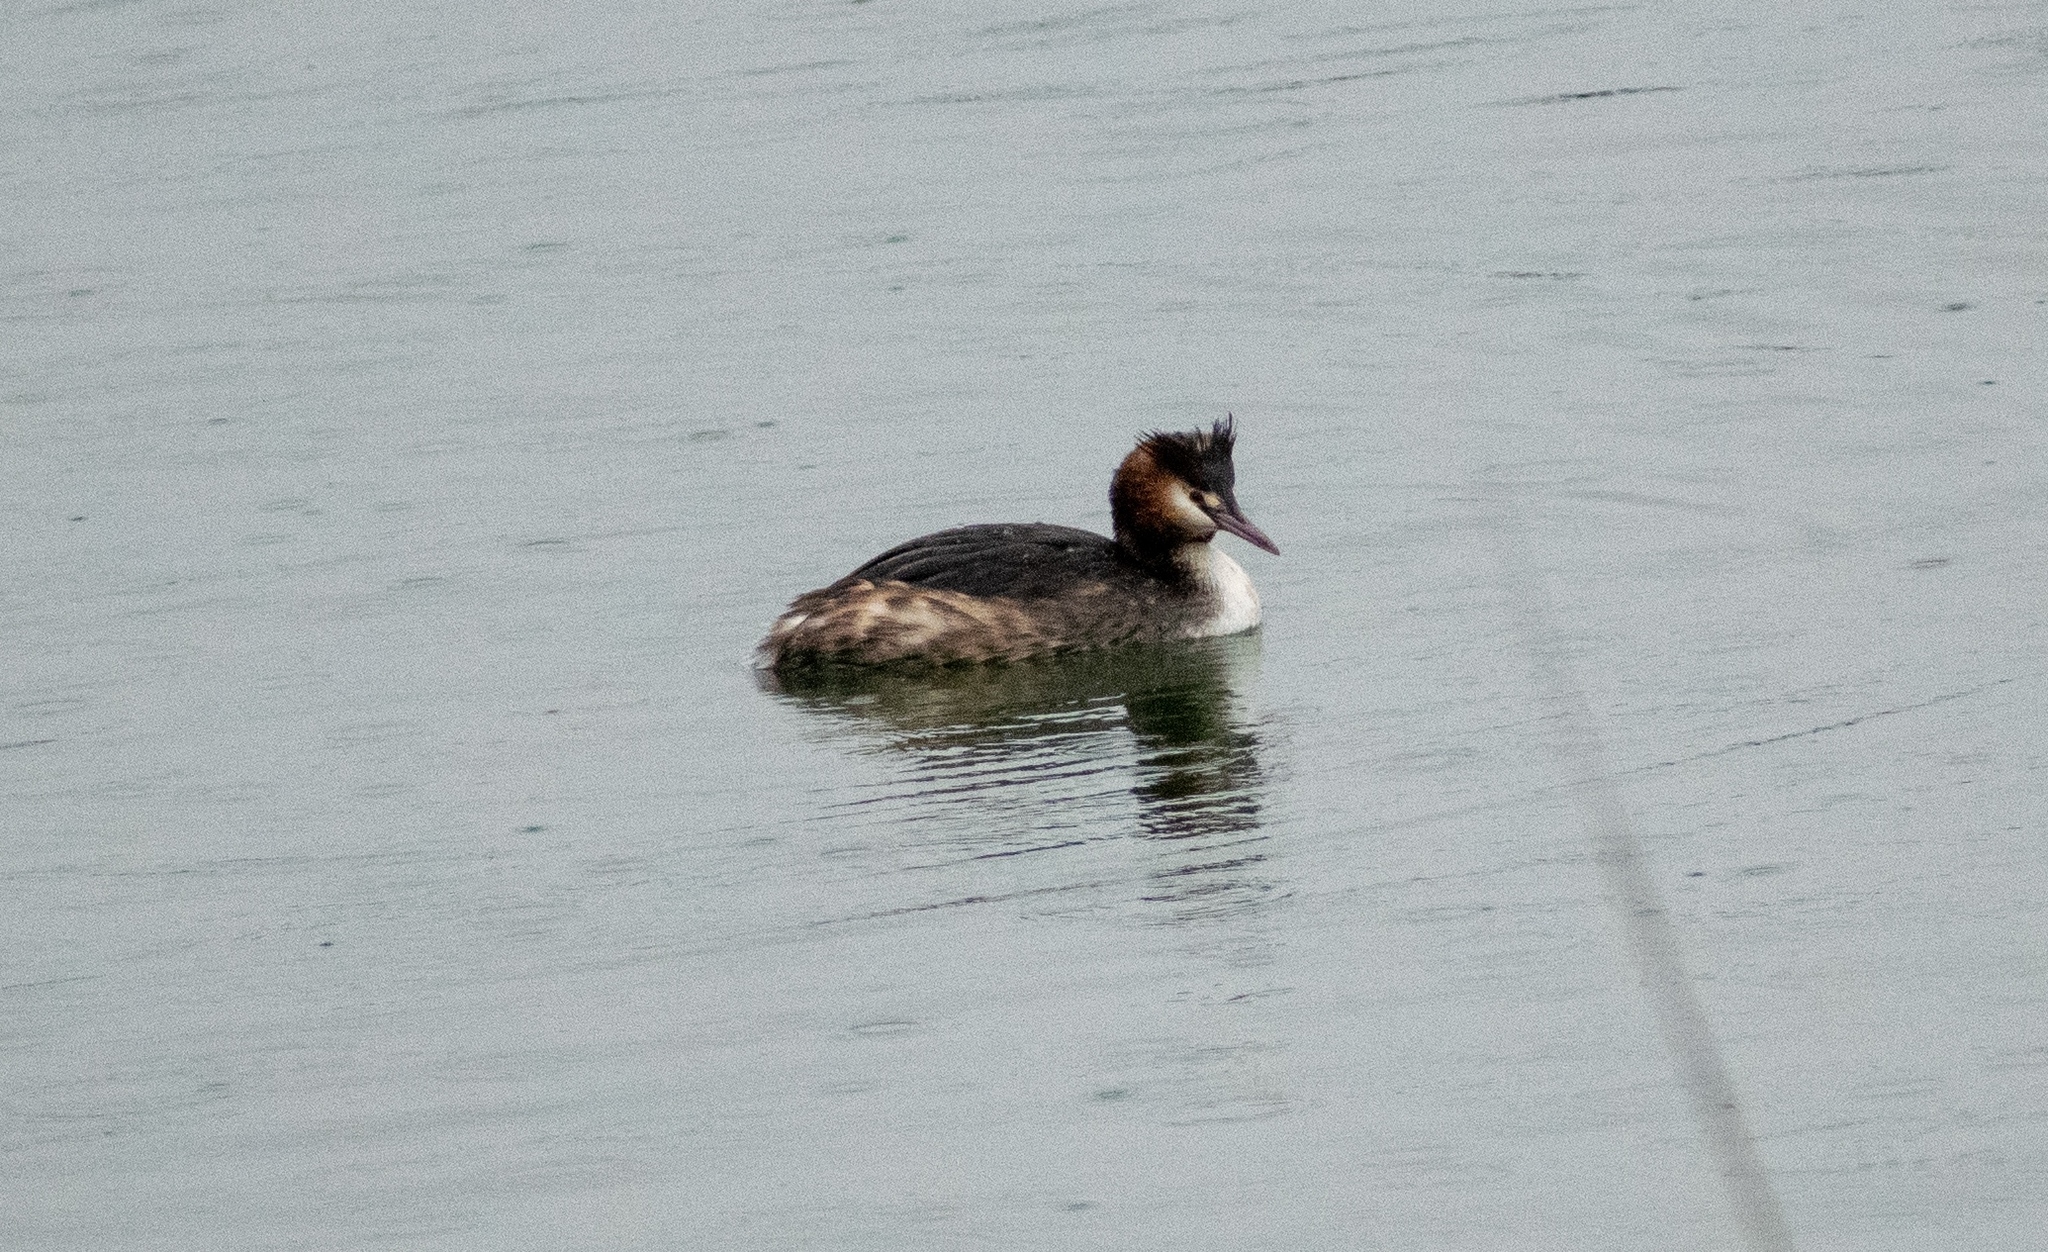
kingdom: Animalia
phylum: Chordata
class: Aves
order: Podicipediformes
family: Podicipedidae
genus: Podiceps
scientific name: Podiceps cristatus
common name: Great crested grebe
